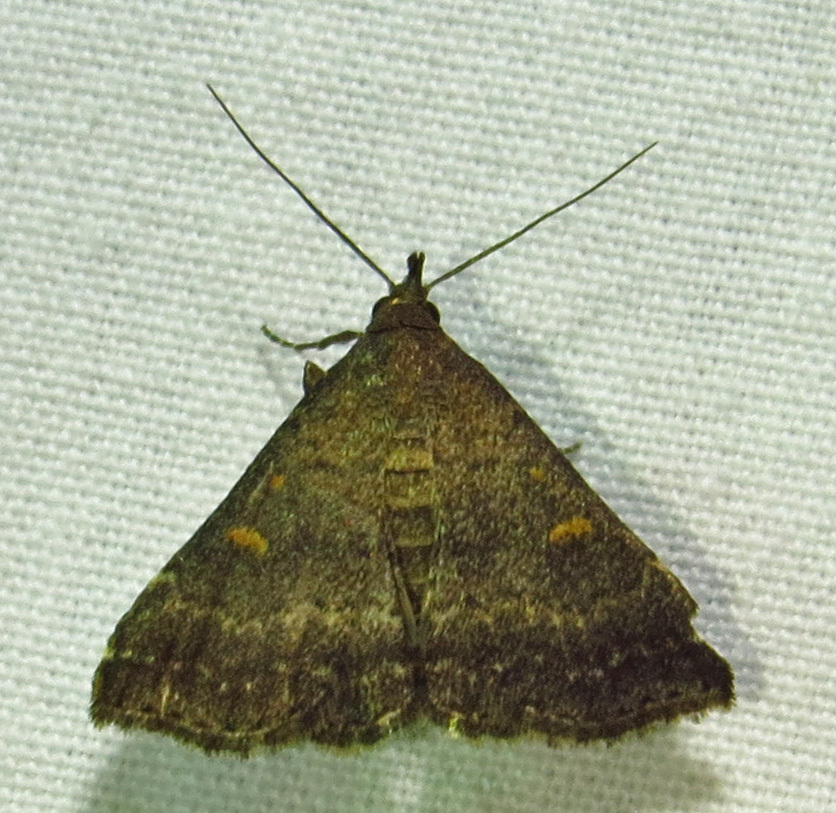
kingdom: Animalia
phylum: Arthropoda
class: Insecta
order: Lepidoptera
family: Erebidae
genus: Tetanolita
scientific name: Tetanolita floridana
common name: Florida tetanolita moth
